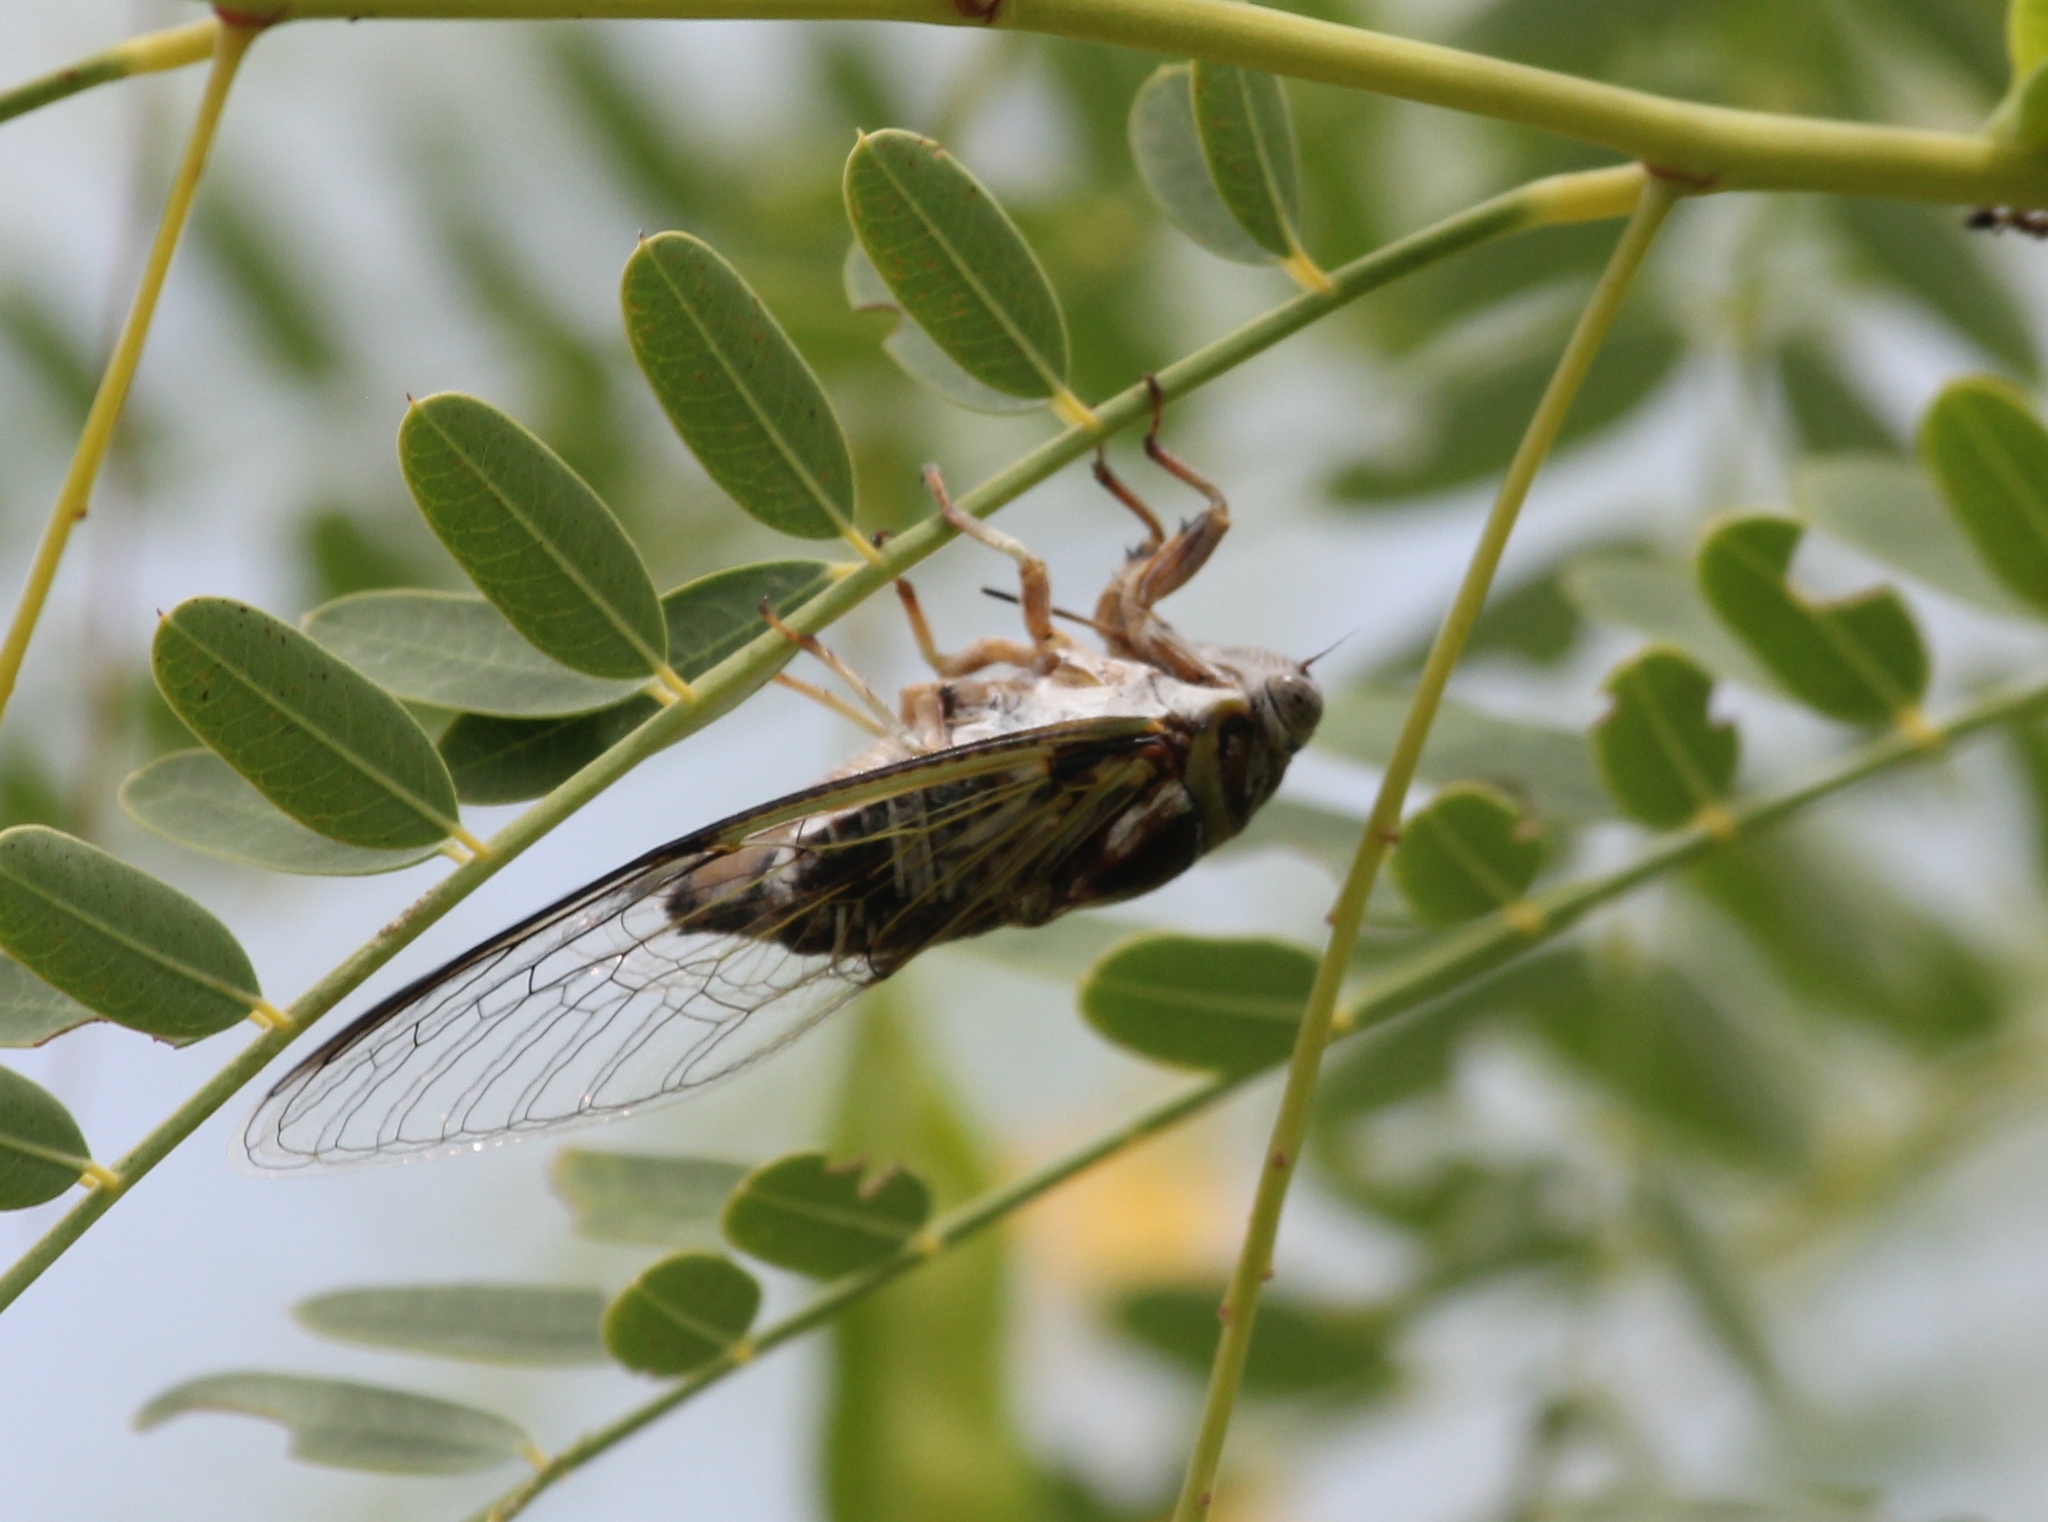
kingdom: Animalia
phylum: Arthropoda
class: Insecta
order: Hemiptera
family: Cicadidae
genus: Diceroprocta
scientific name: Diceroprocta viridifascia
